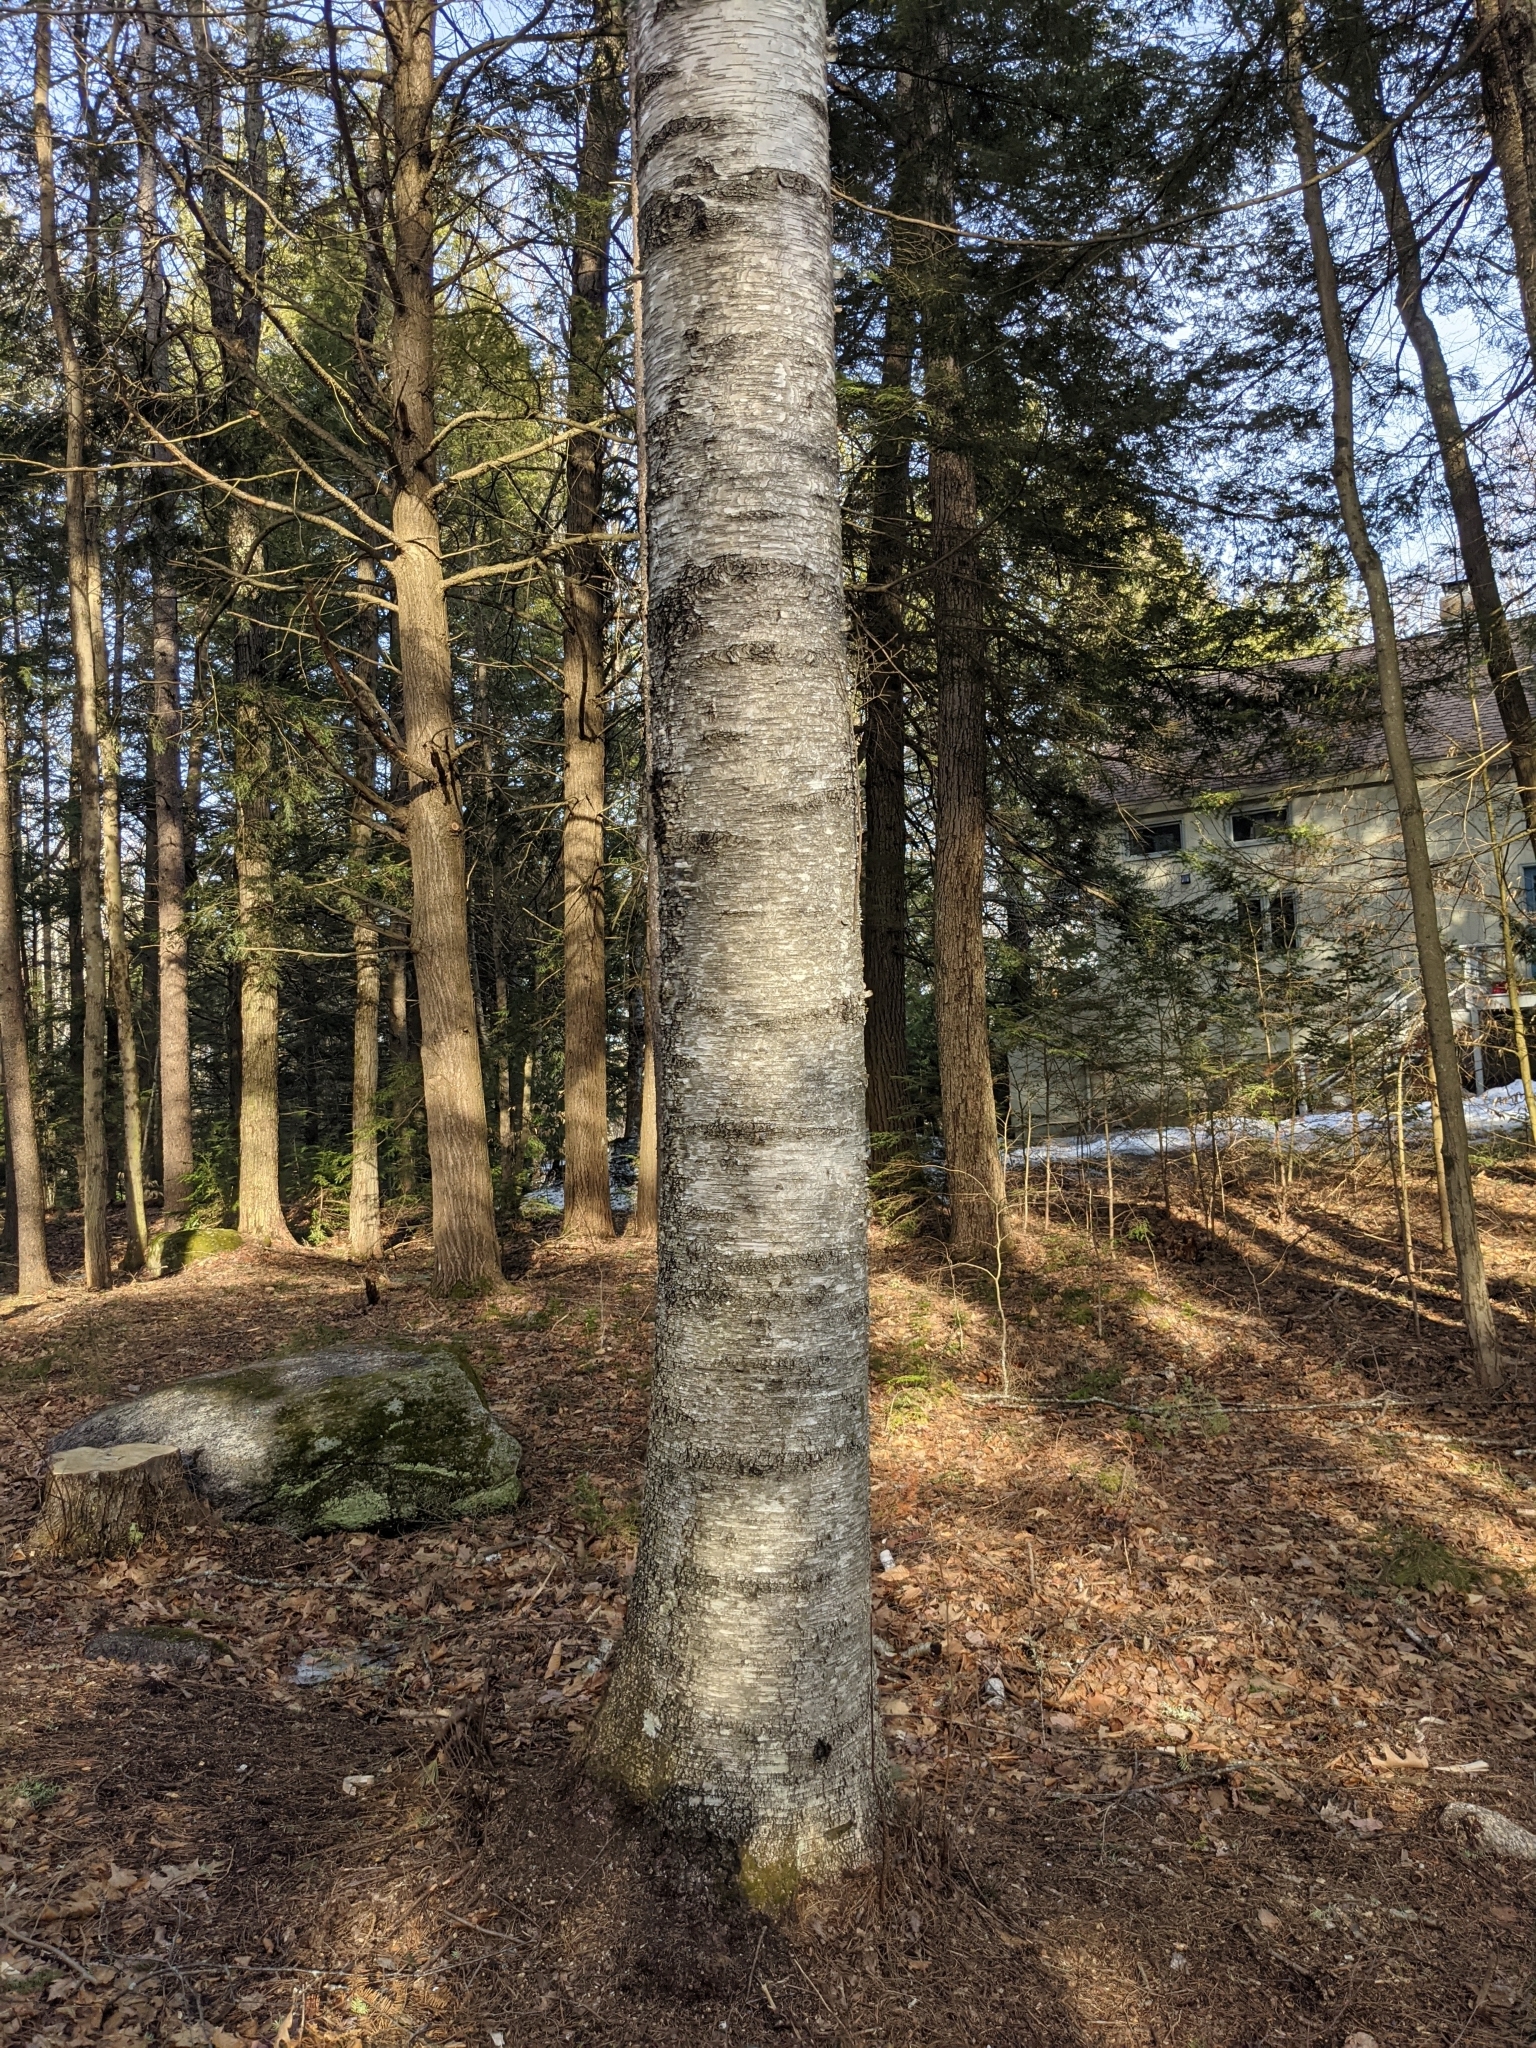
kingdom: Plantae
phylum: Tracheophyta
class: Magnoliopsida
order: Fagales
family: Betulaceae
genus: Betula
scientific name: Betula papyrifera
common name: Paper birch
